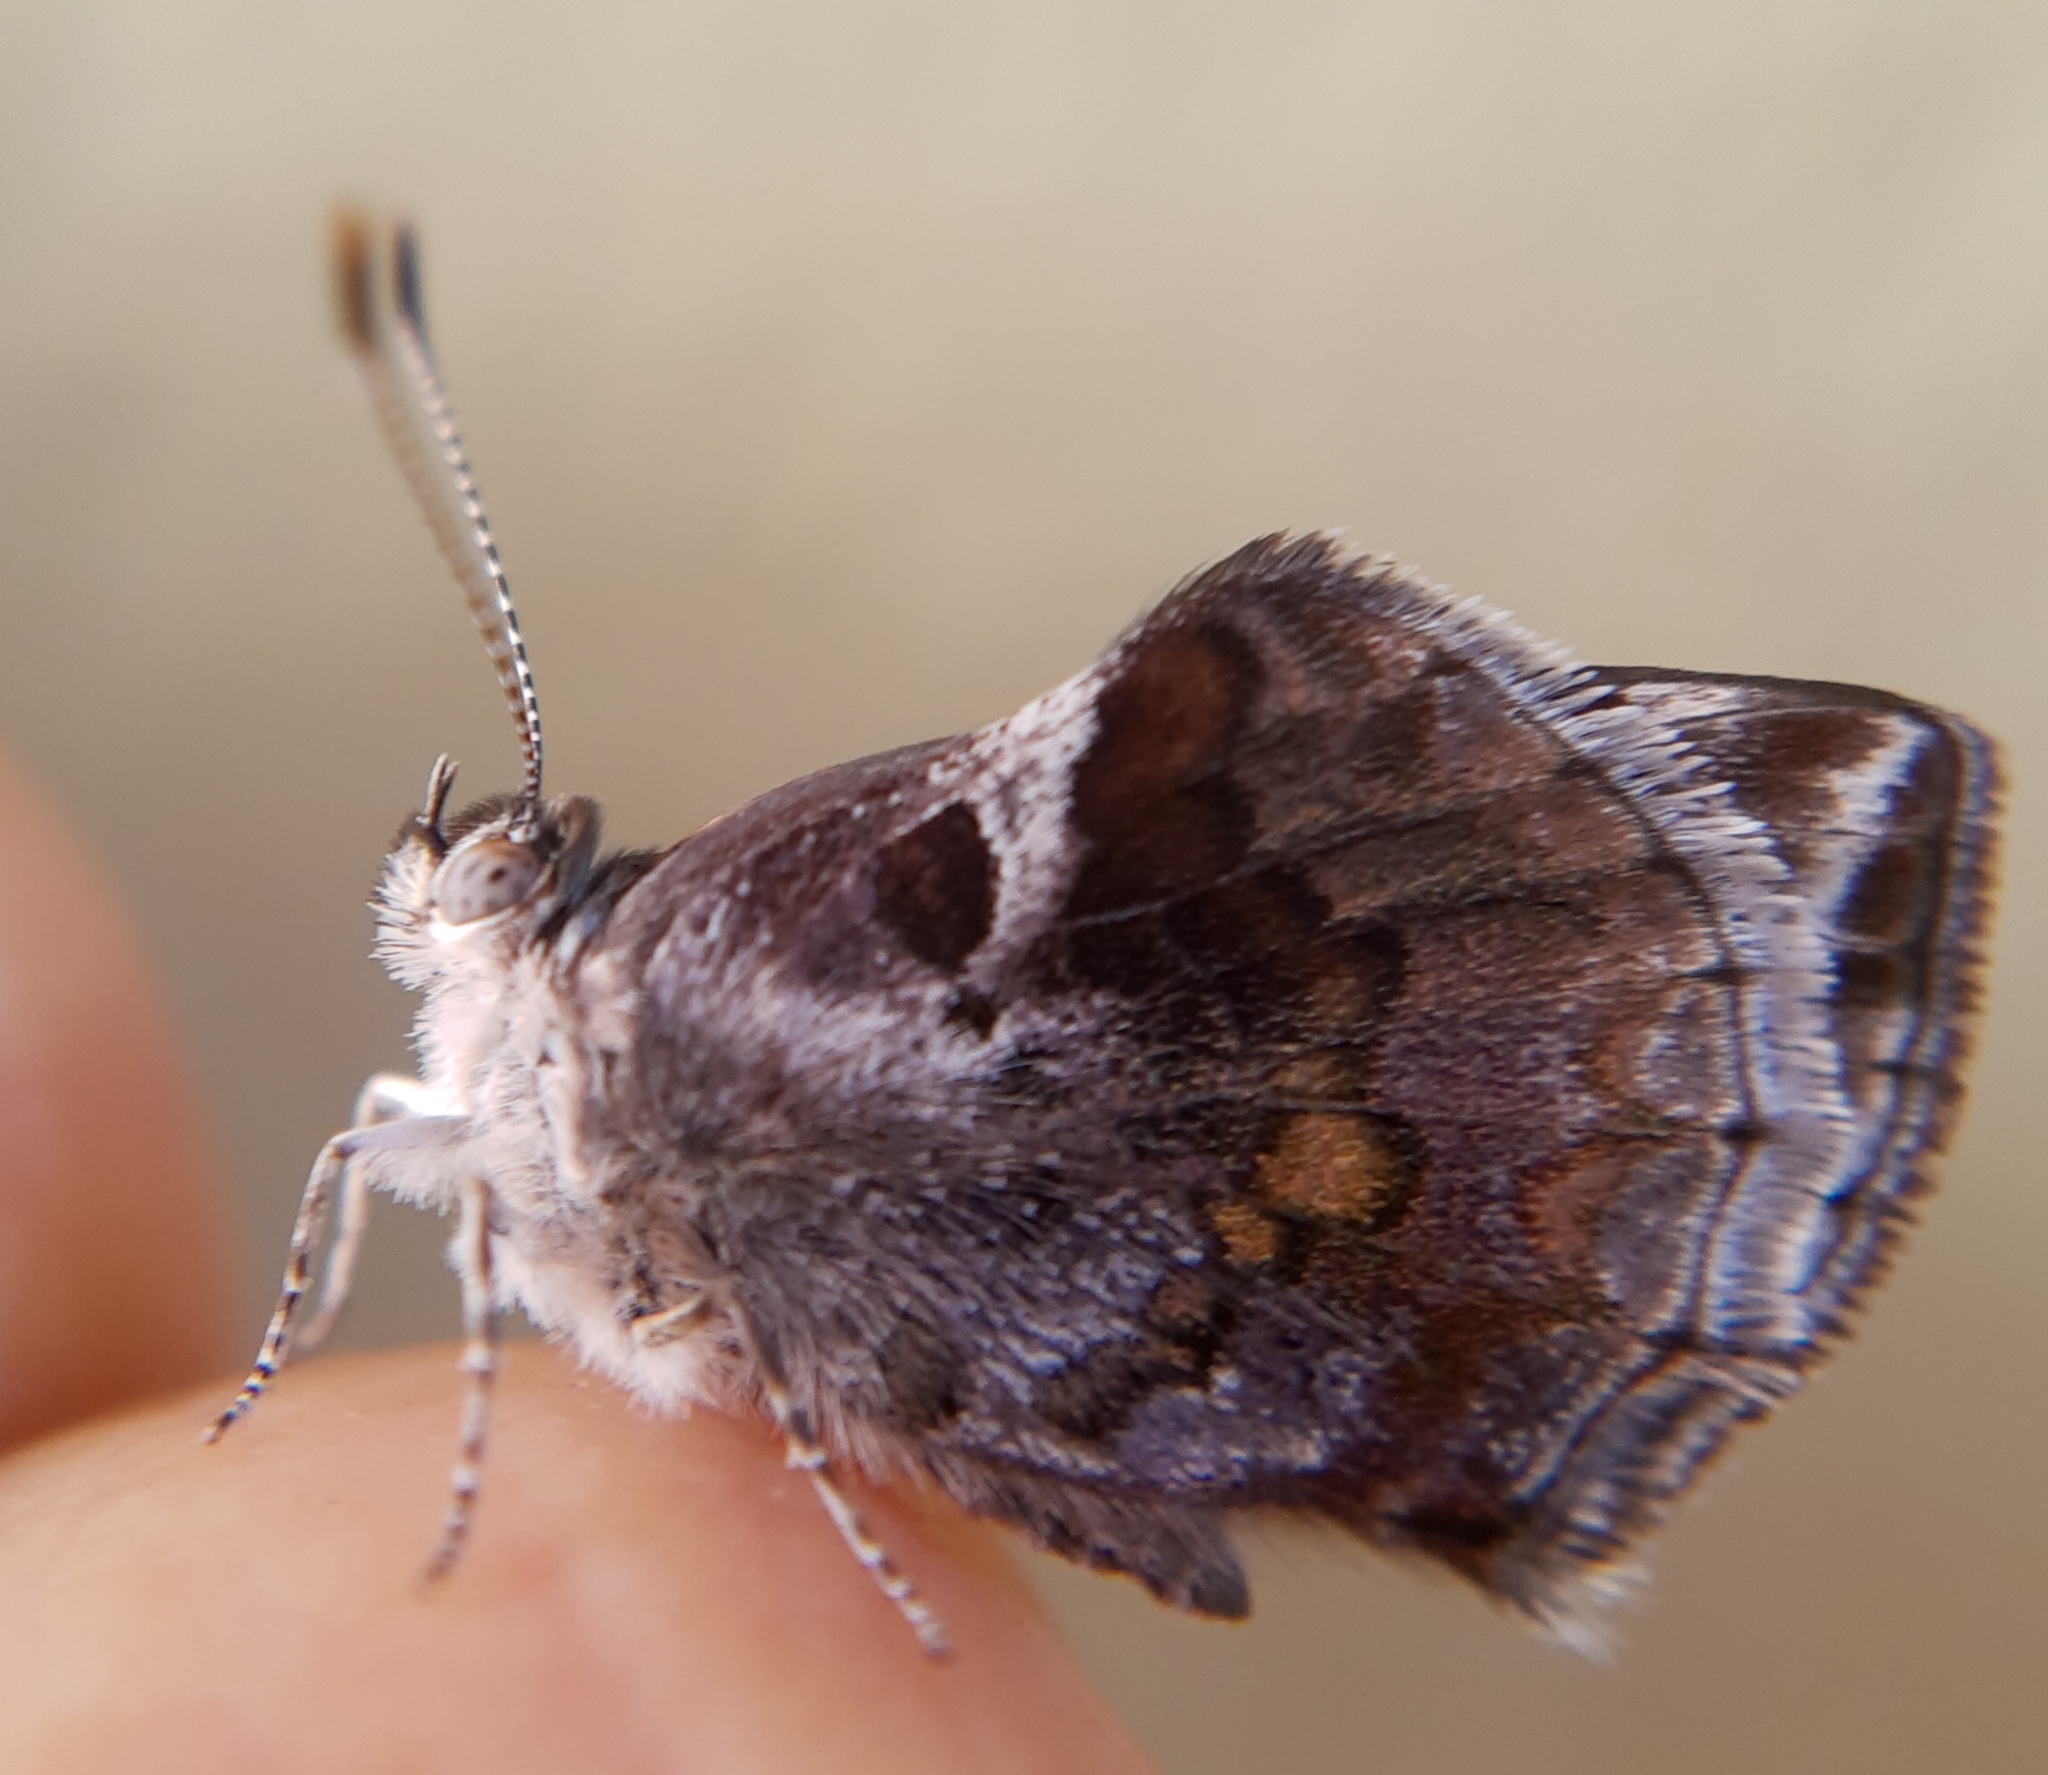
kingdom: Animalia
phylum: Arthropoda
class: Insecta
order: Lepidoptera
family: Lycaenidae
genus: Strymon
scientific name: Strymon bazochii
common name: Lantana scrub-hairstreak
